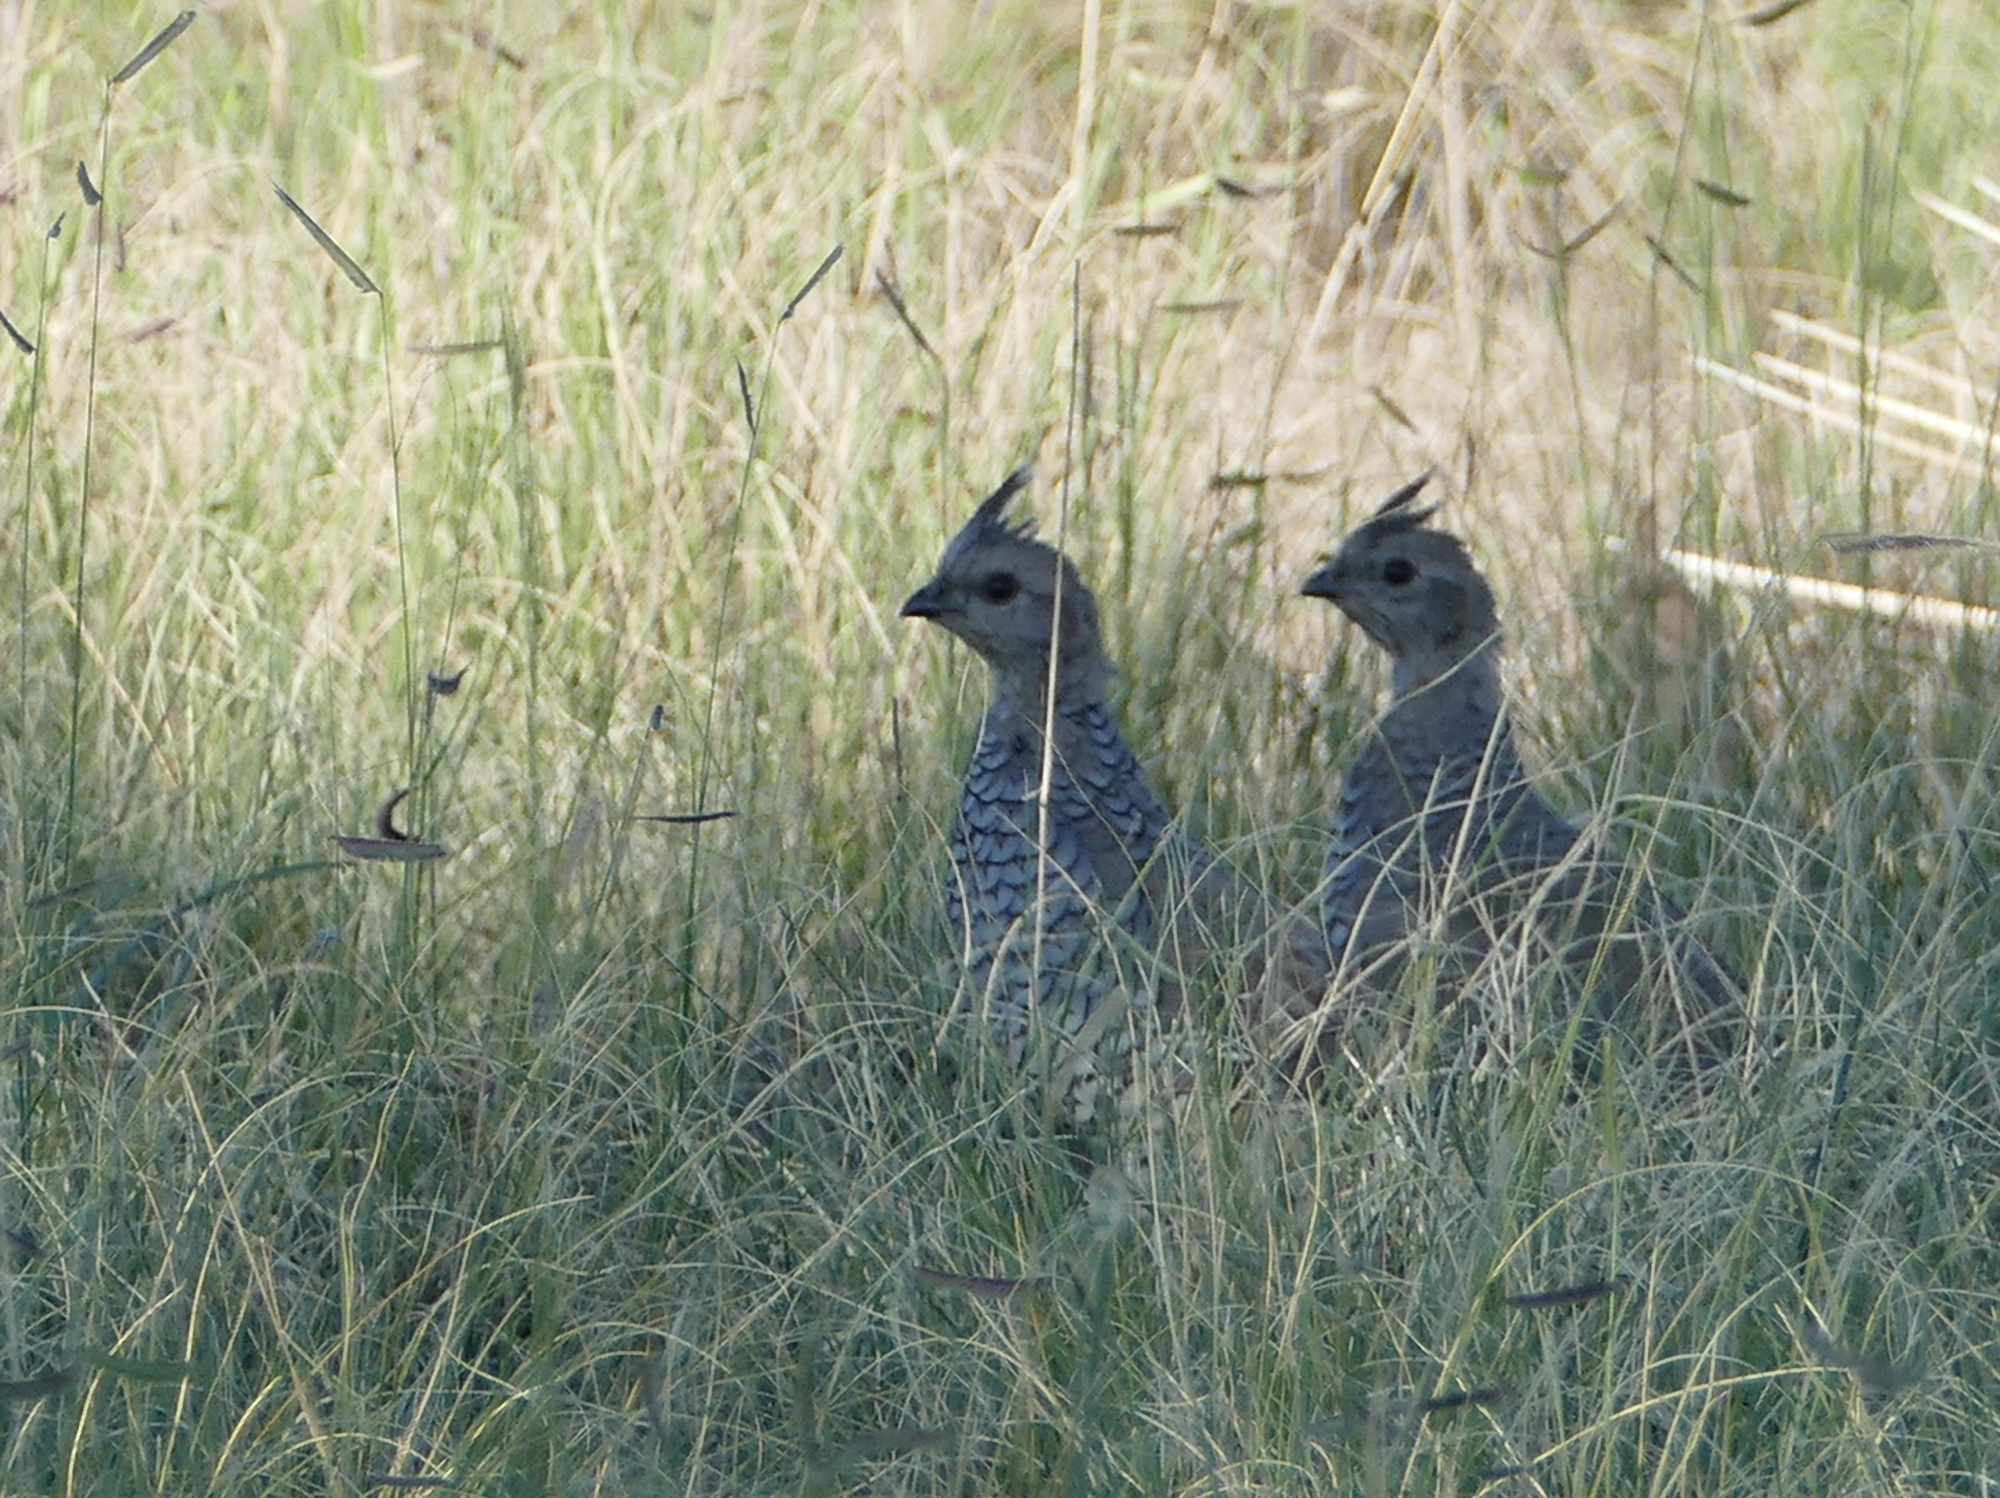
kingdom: Animalia
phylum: Chordata
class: Aves
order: Galliformes
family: Odontophoridae
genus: Callipepla
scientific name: Callipepla squamata
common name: Scaled quail
